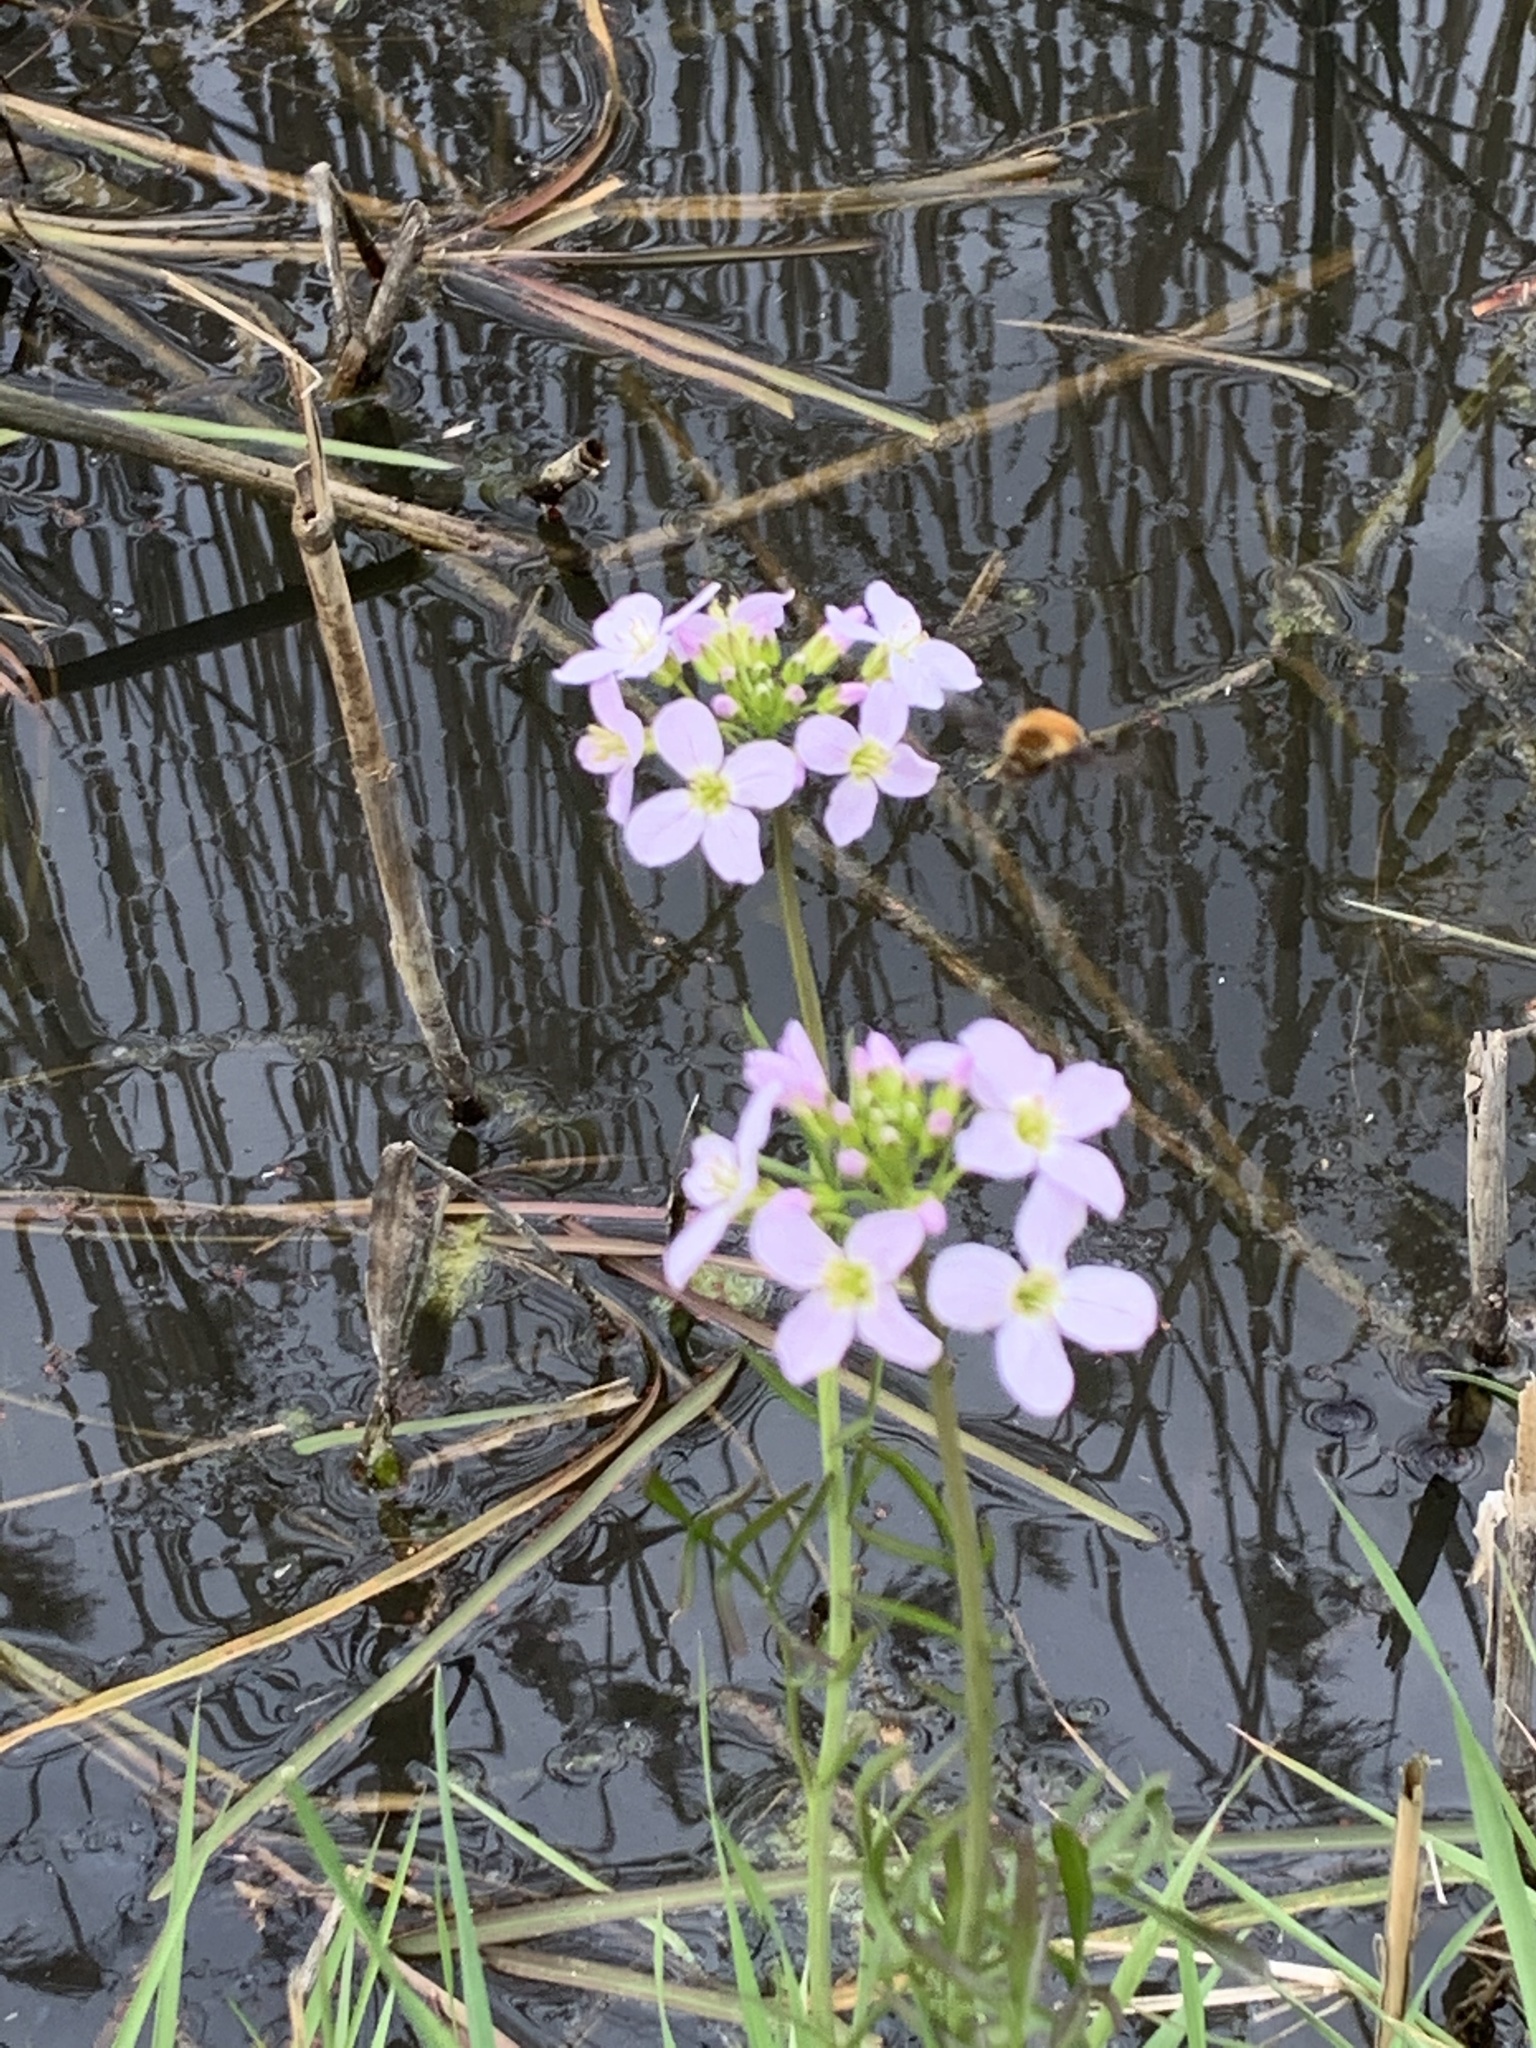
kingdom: Plantae
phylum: Tracheophyta
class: Magnoliopsida
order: Brassicales
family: Brassicaceae
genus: Cardamine
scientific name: Cardamine pratensis
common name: Cuckoo flower
